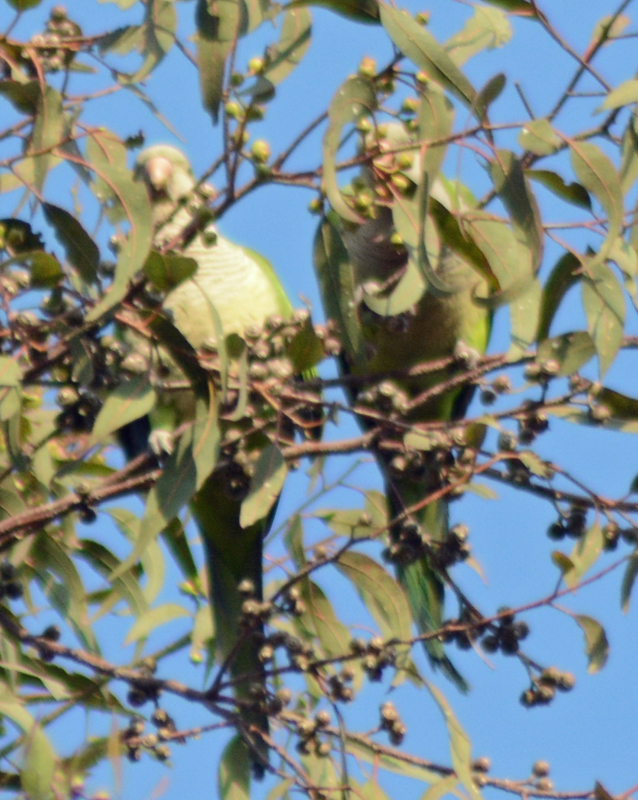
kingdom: Animalia
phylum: Chordata
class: Aves
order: Psittaciformes
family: Psittacidae
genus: Myiopsitta
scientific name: Myiopsitta monachus
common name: Monk parakeet
